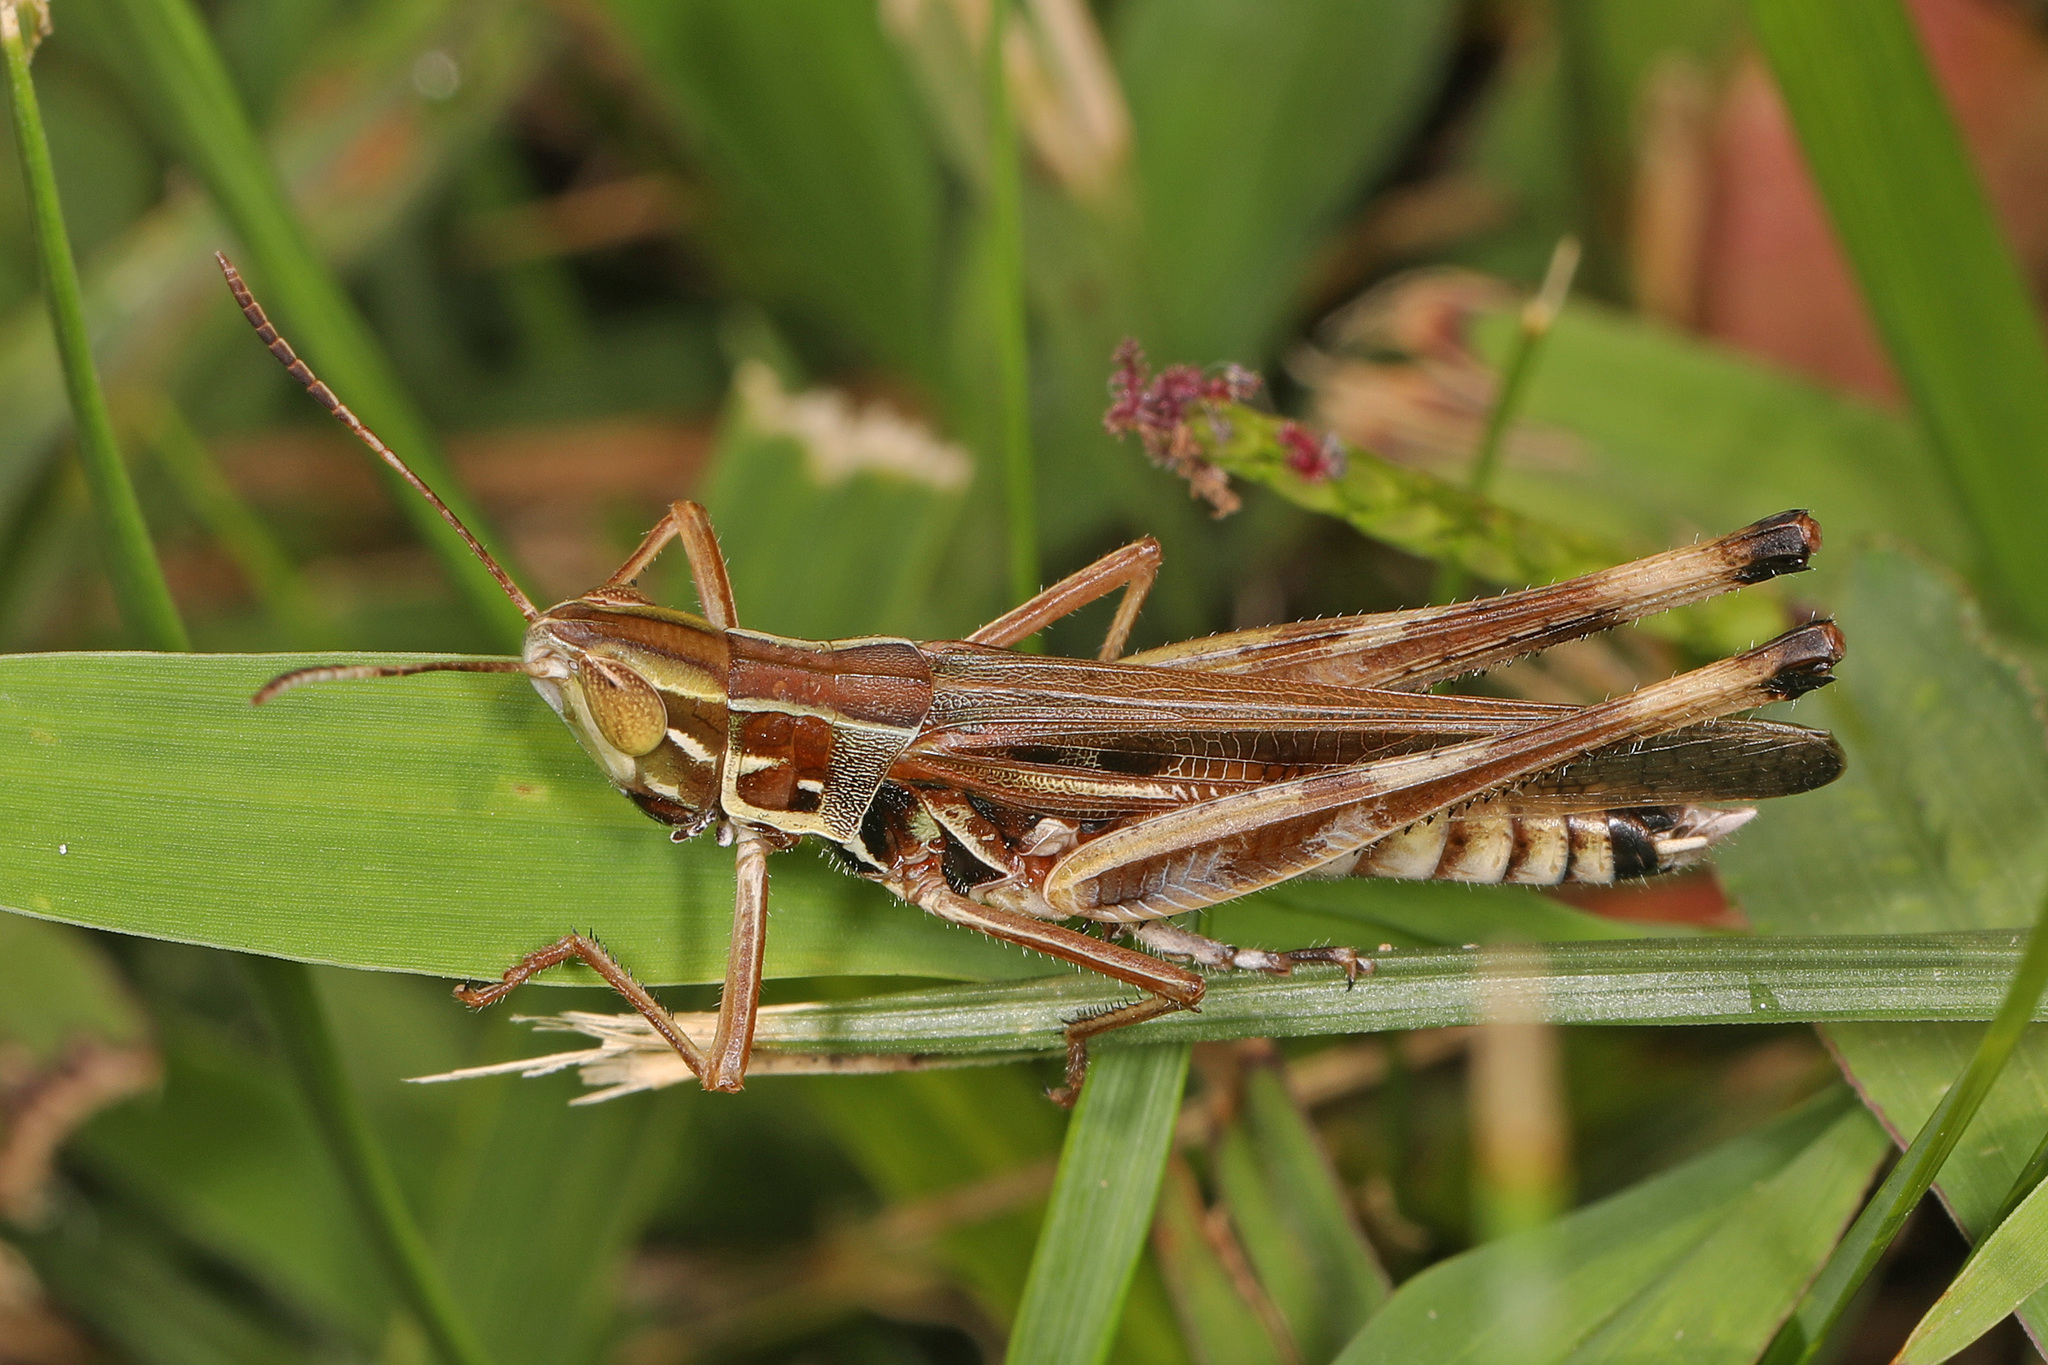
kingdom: Animalia
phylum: Arthropoda
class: Insecta
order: Orthoptera
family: Acrididae
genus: Syrbula
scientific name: Syrbula admirabilis
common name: Handsome grasshopper
